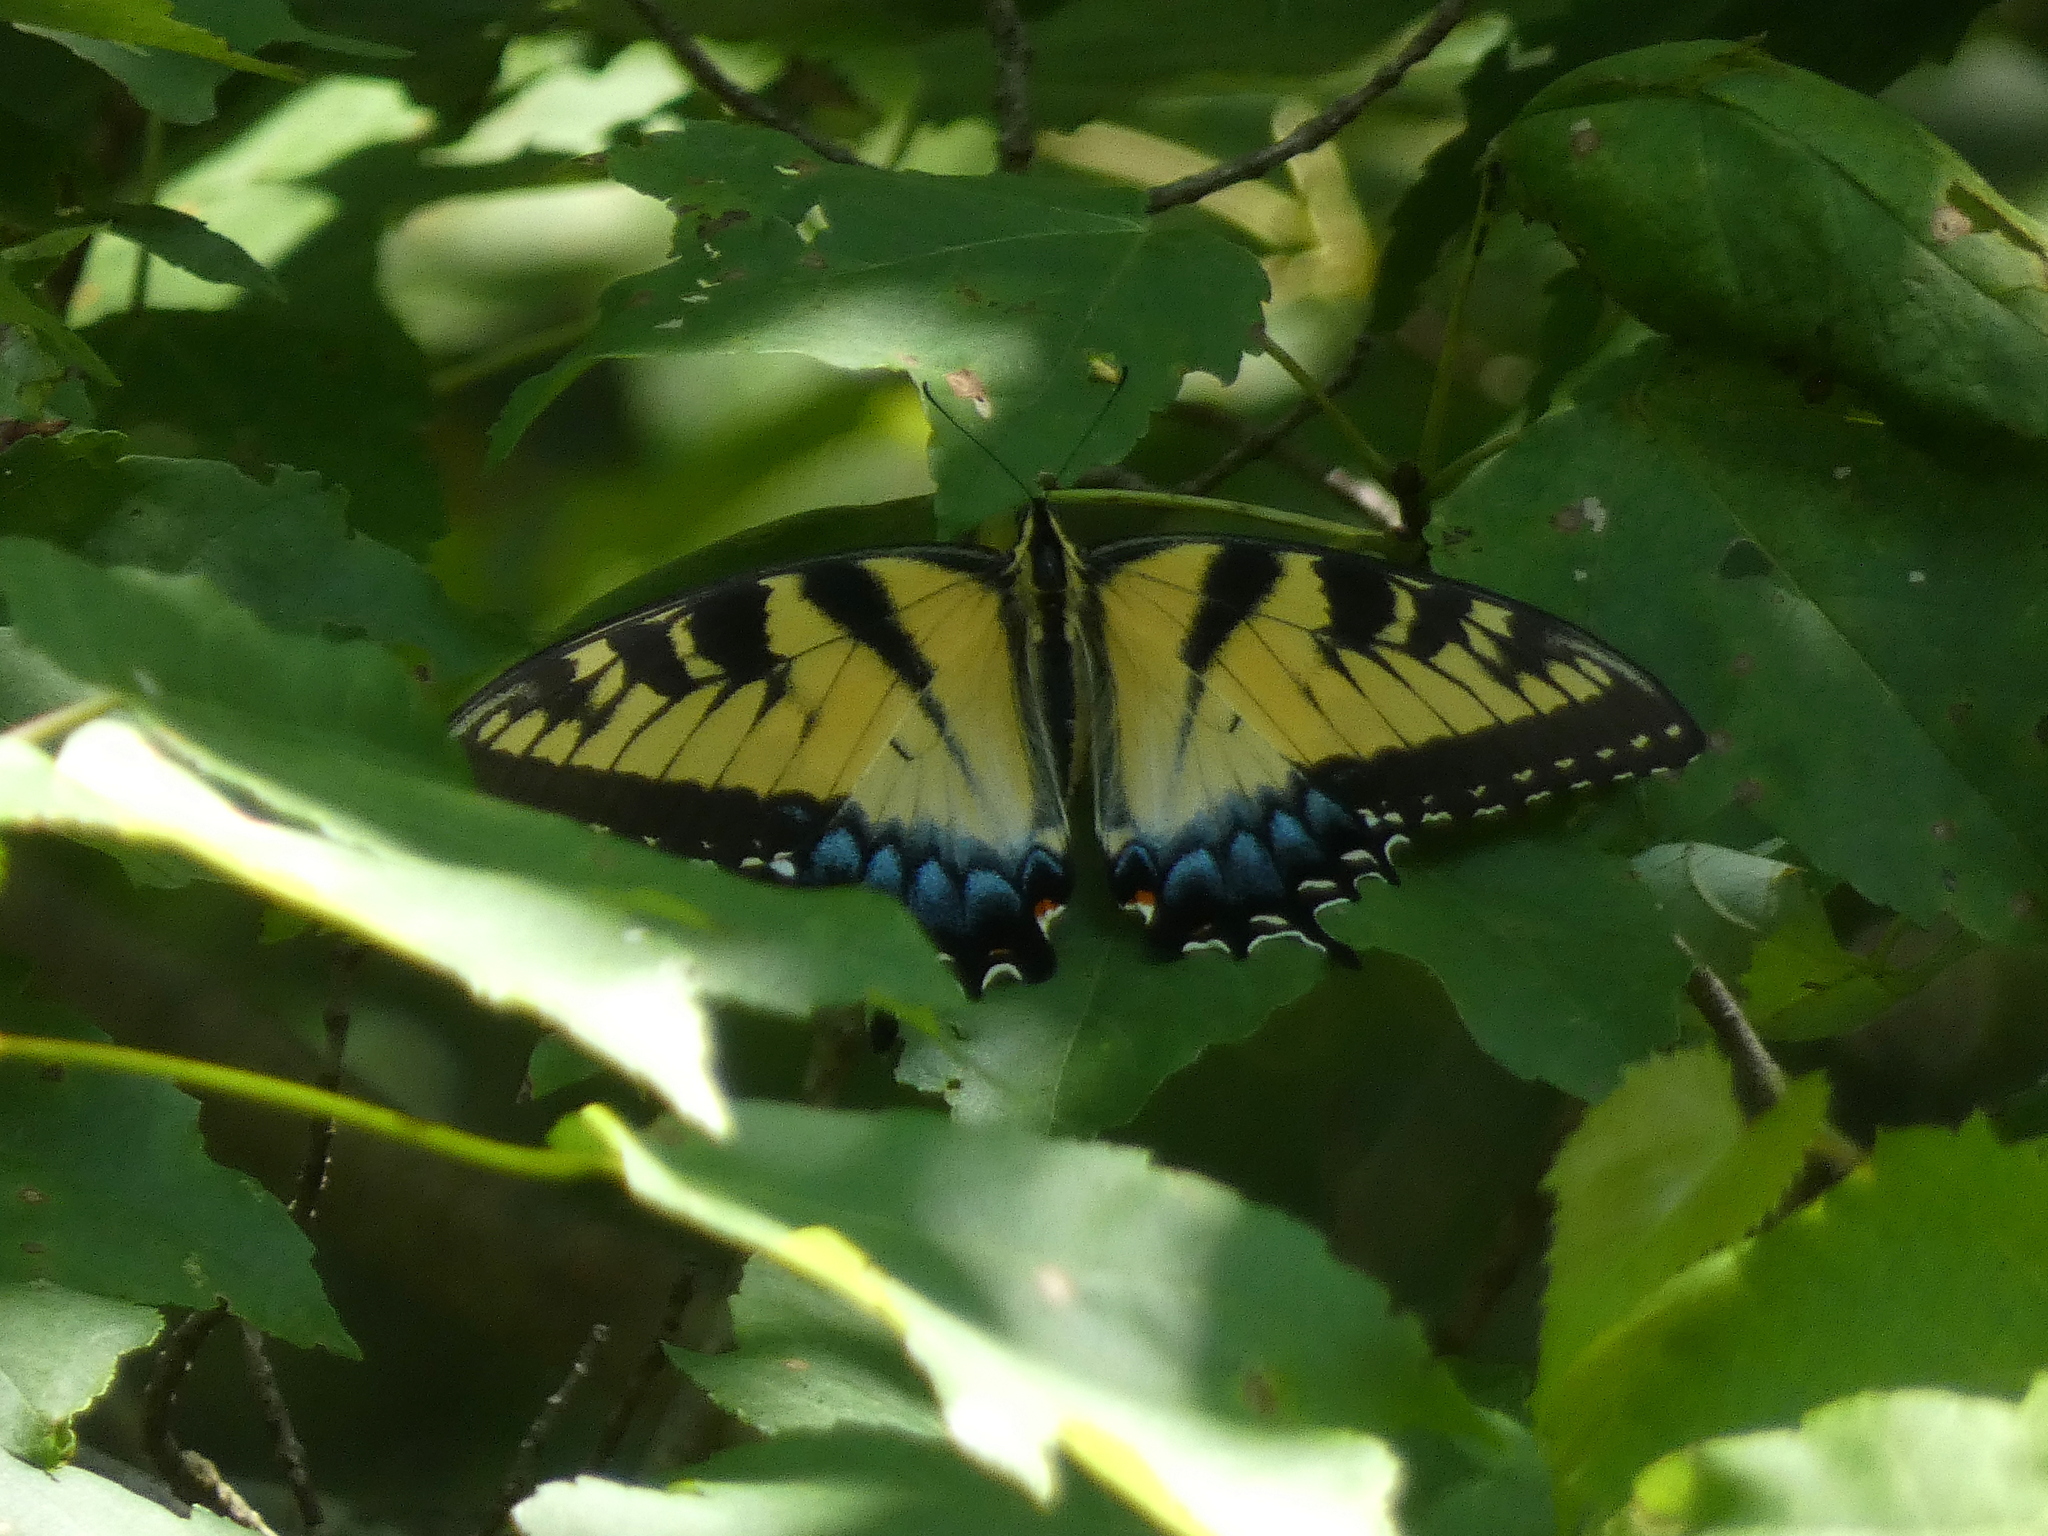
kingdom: Animalia
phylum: Arthropoda
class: Insecta
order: Lepidoptera
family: Papilionidae
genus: Papilio
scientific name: Papilio glaucus
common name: Tiger swallowtail
